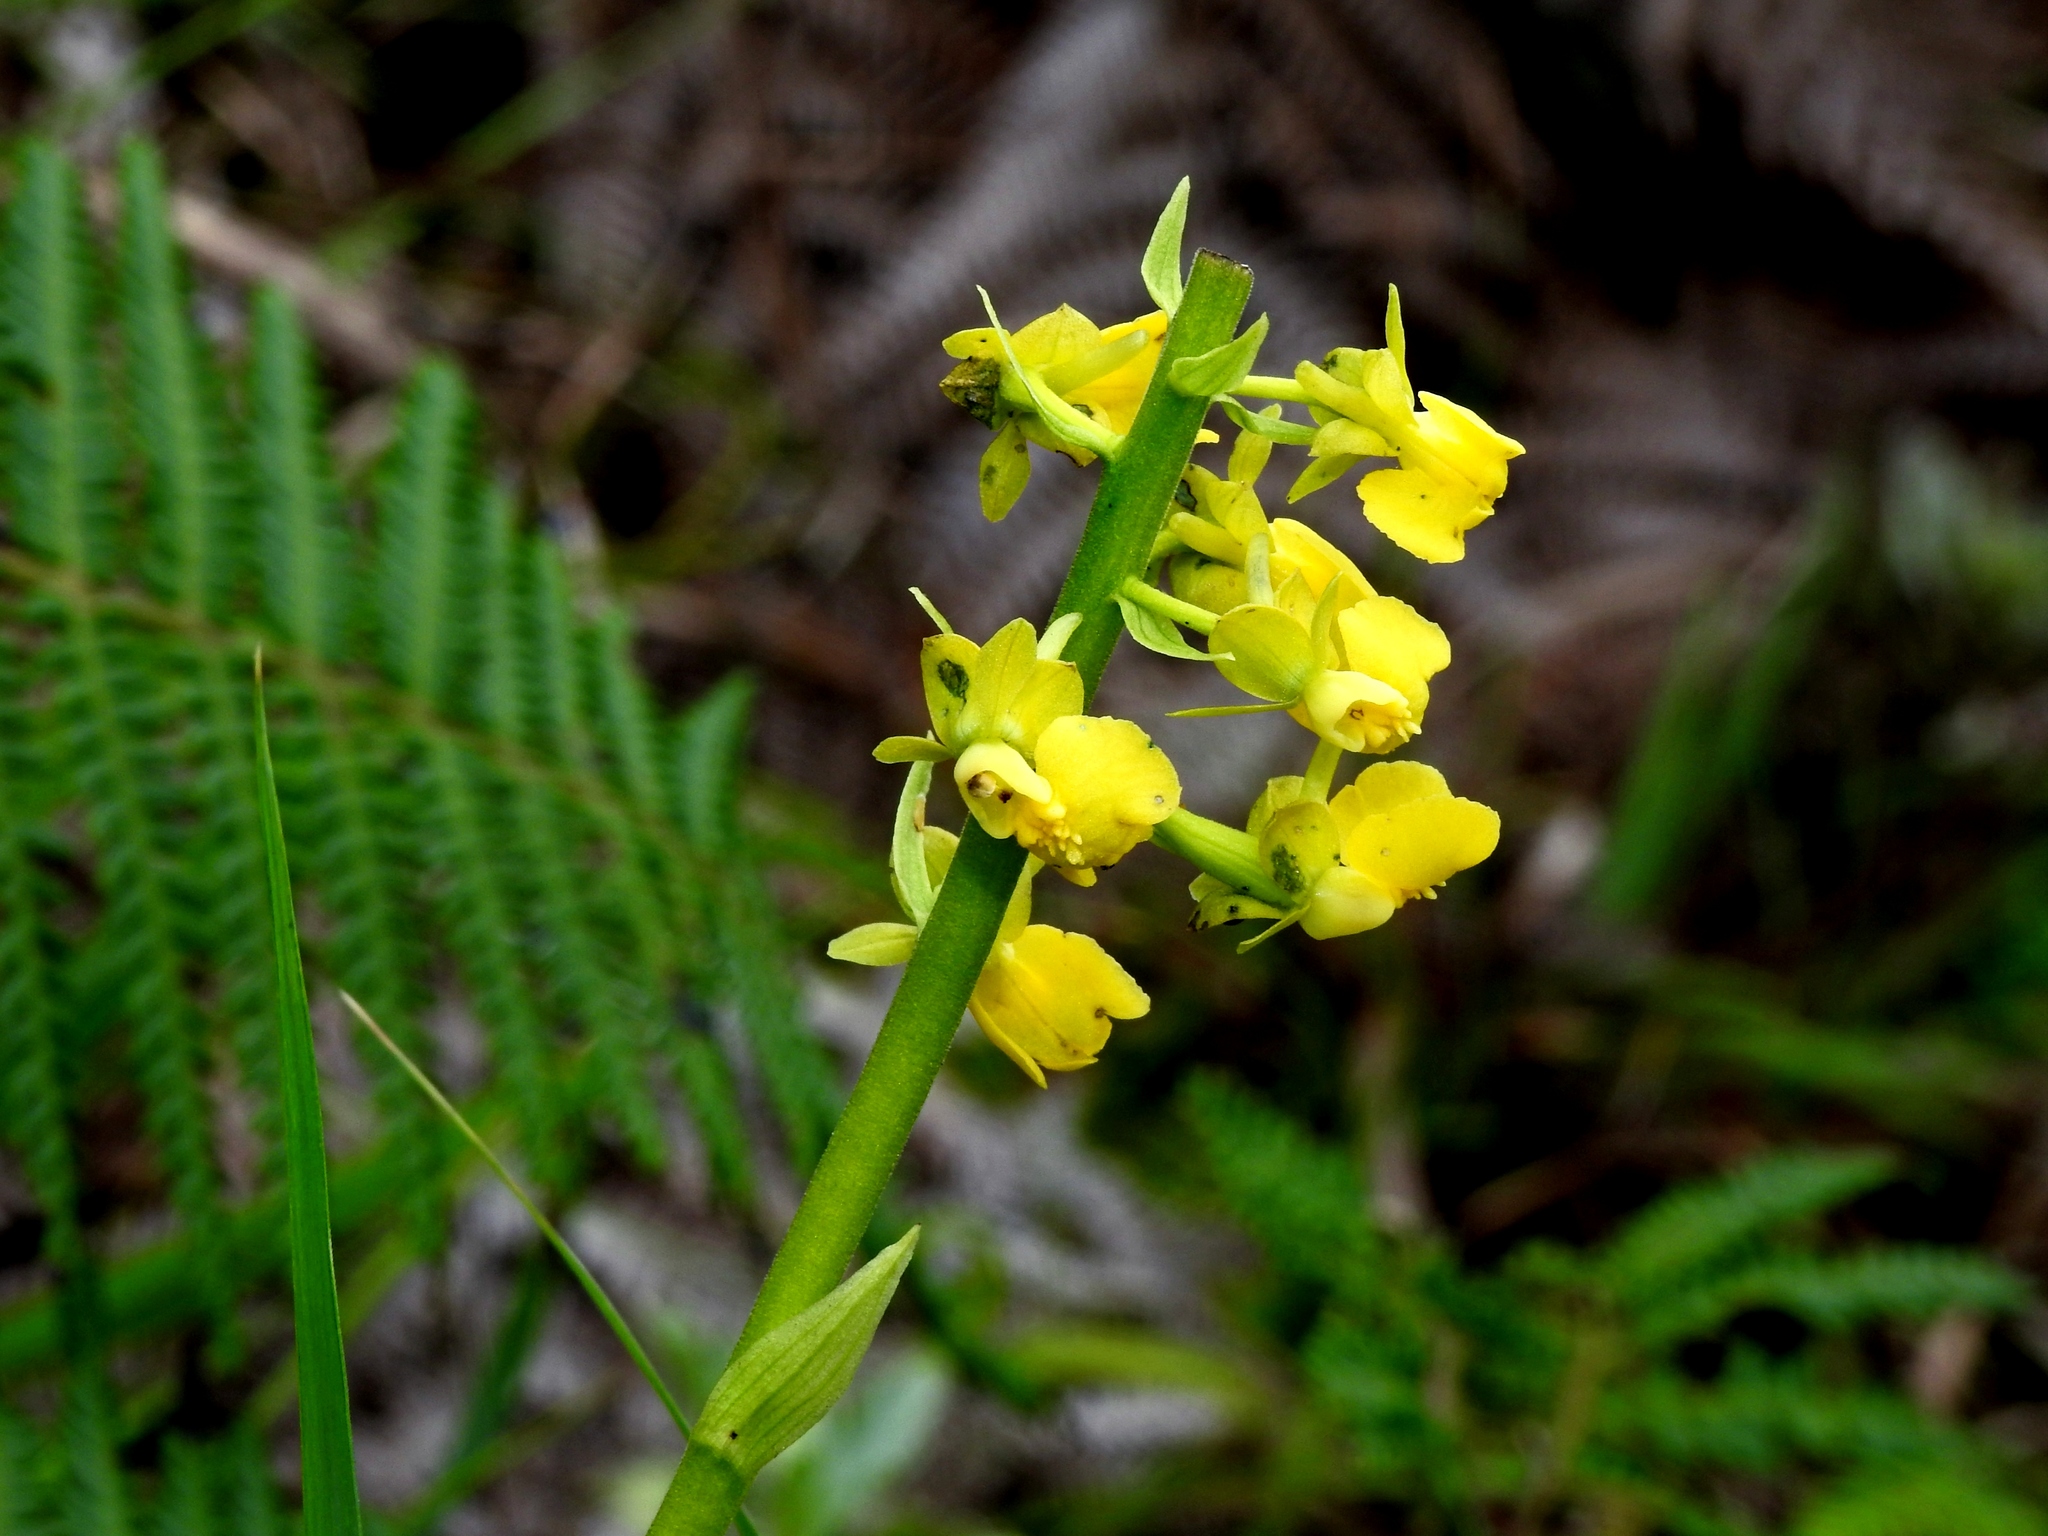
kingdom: Plantae
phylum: Tracheophyta
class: Liliopsida
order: Asparagales
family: Orchidaceae
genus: Calanthe
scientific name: Calanthe davidii
